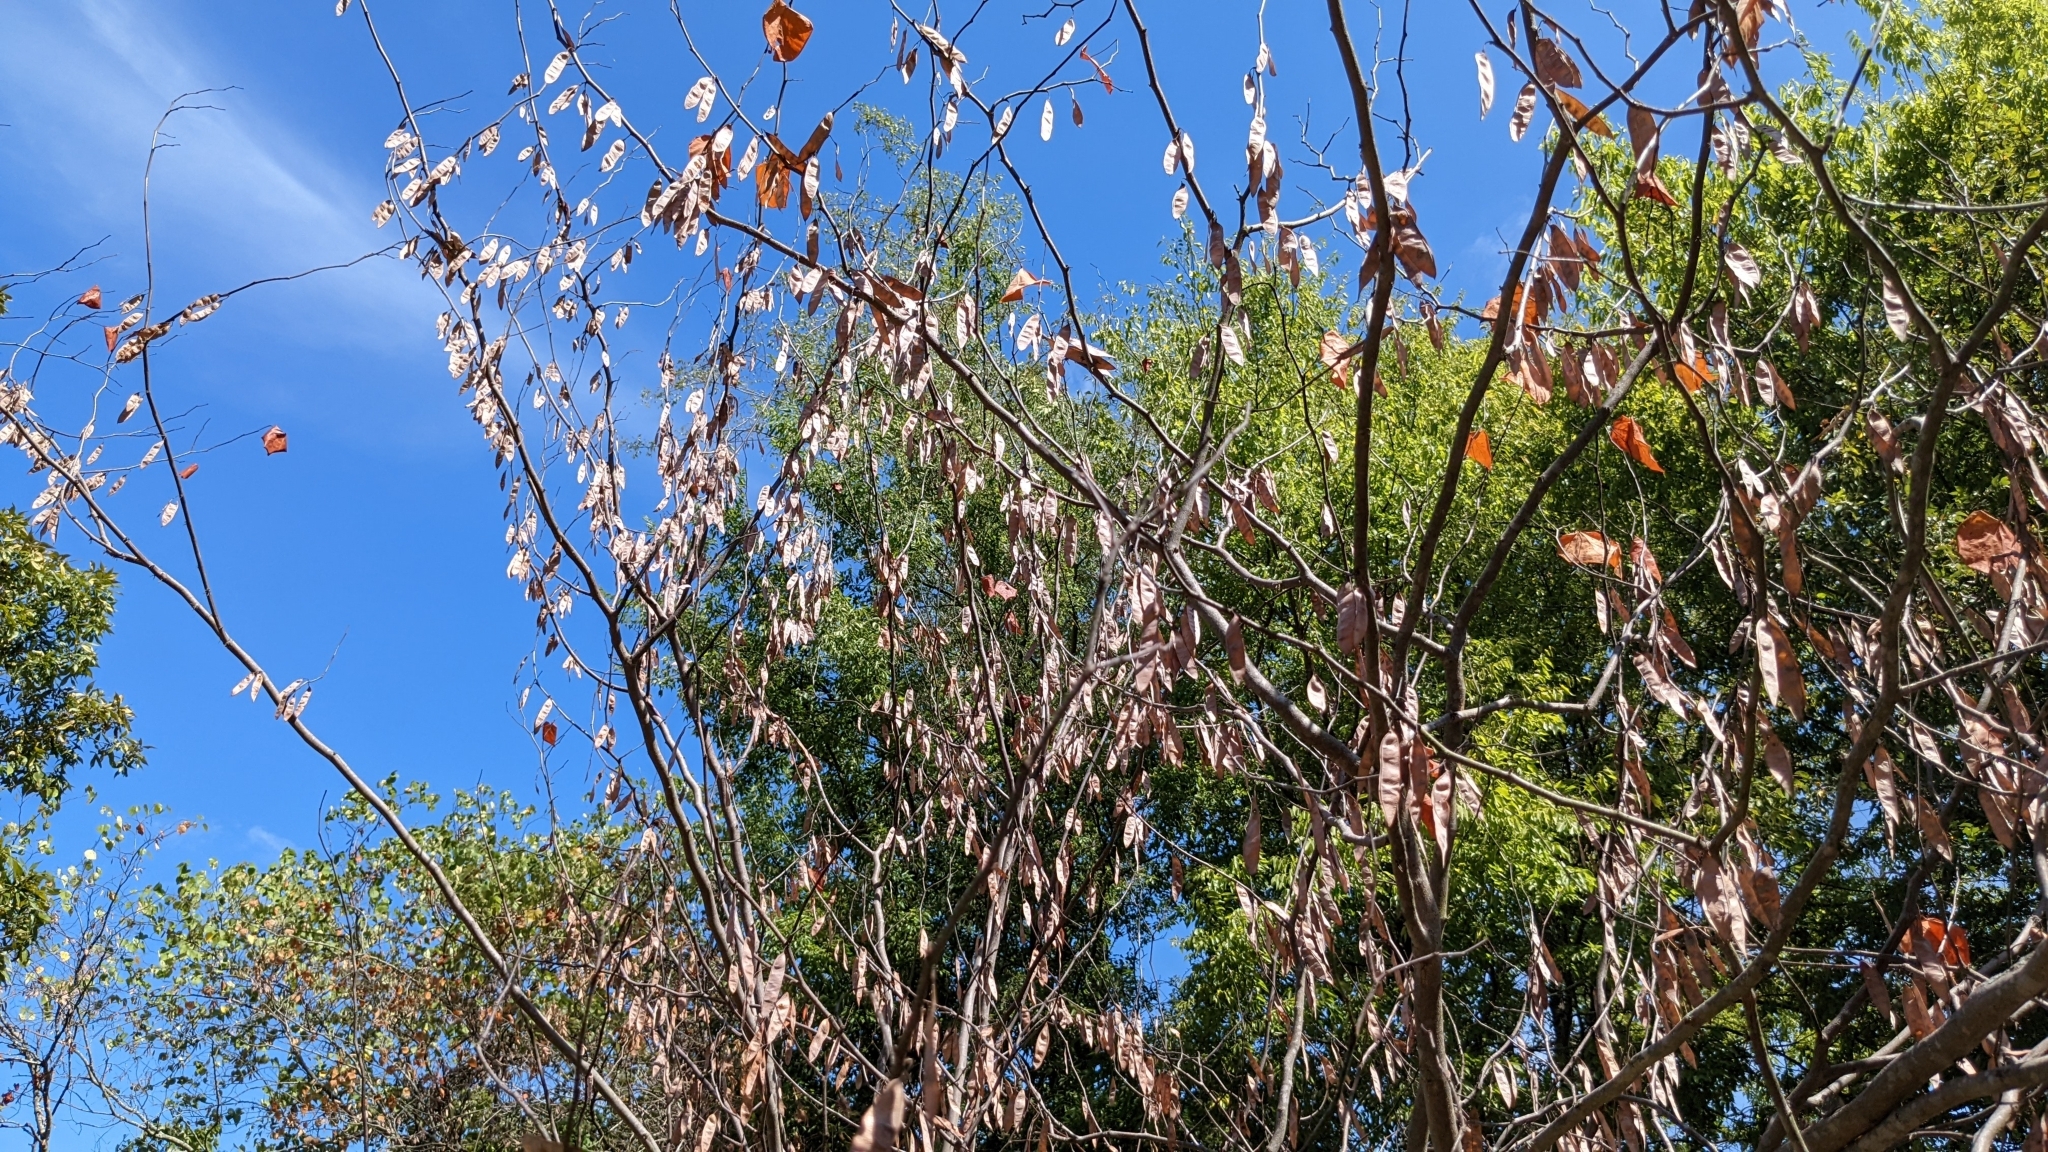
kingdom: Plantae
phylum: Tracheophyta
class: Magnoliopsida
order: Fabales
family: Fabaceae
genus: Cercis
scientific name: Cercis canadensis
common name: Eastern redbud
